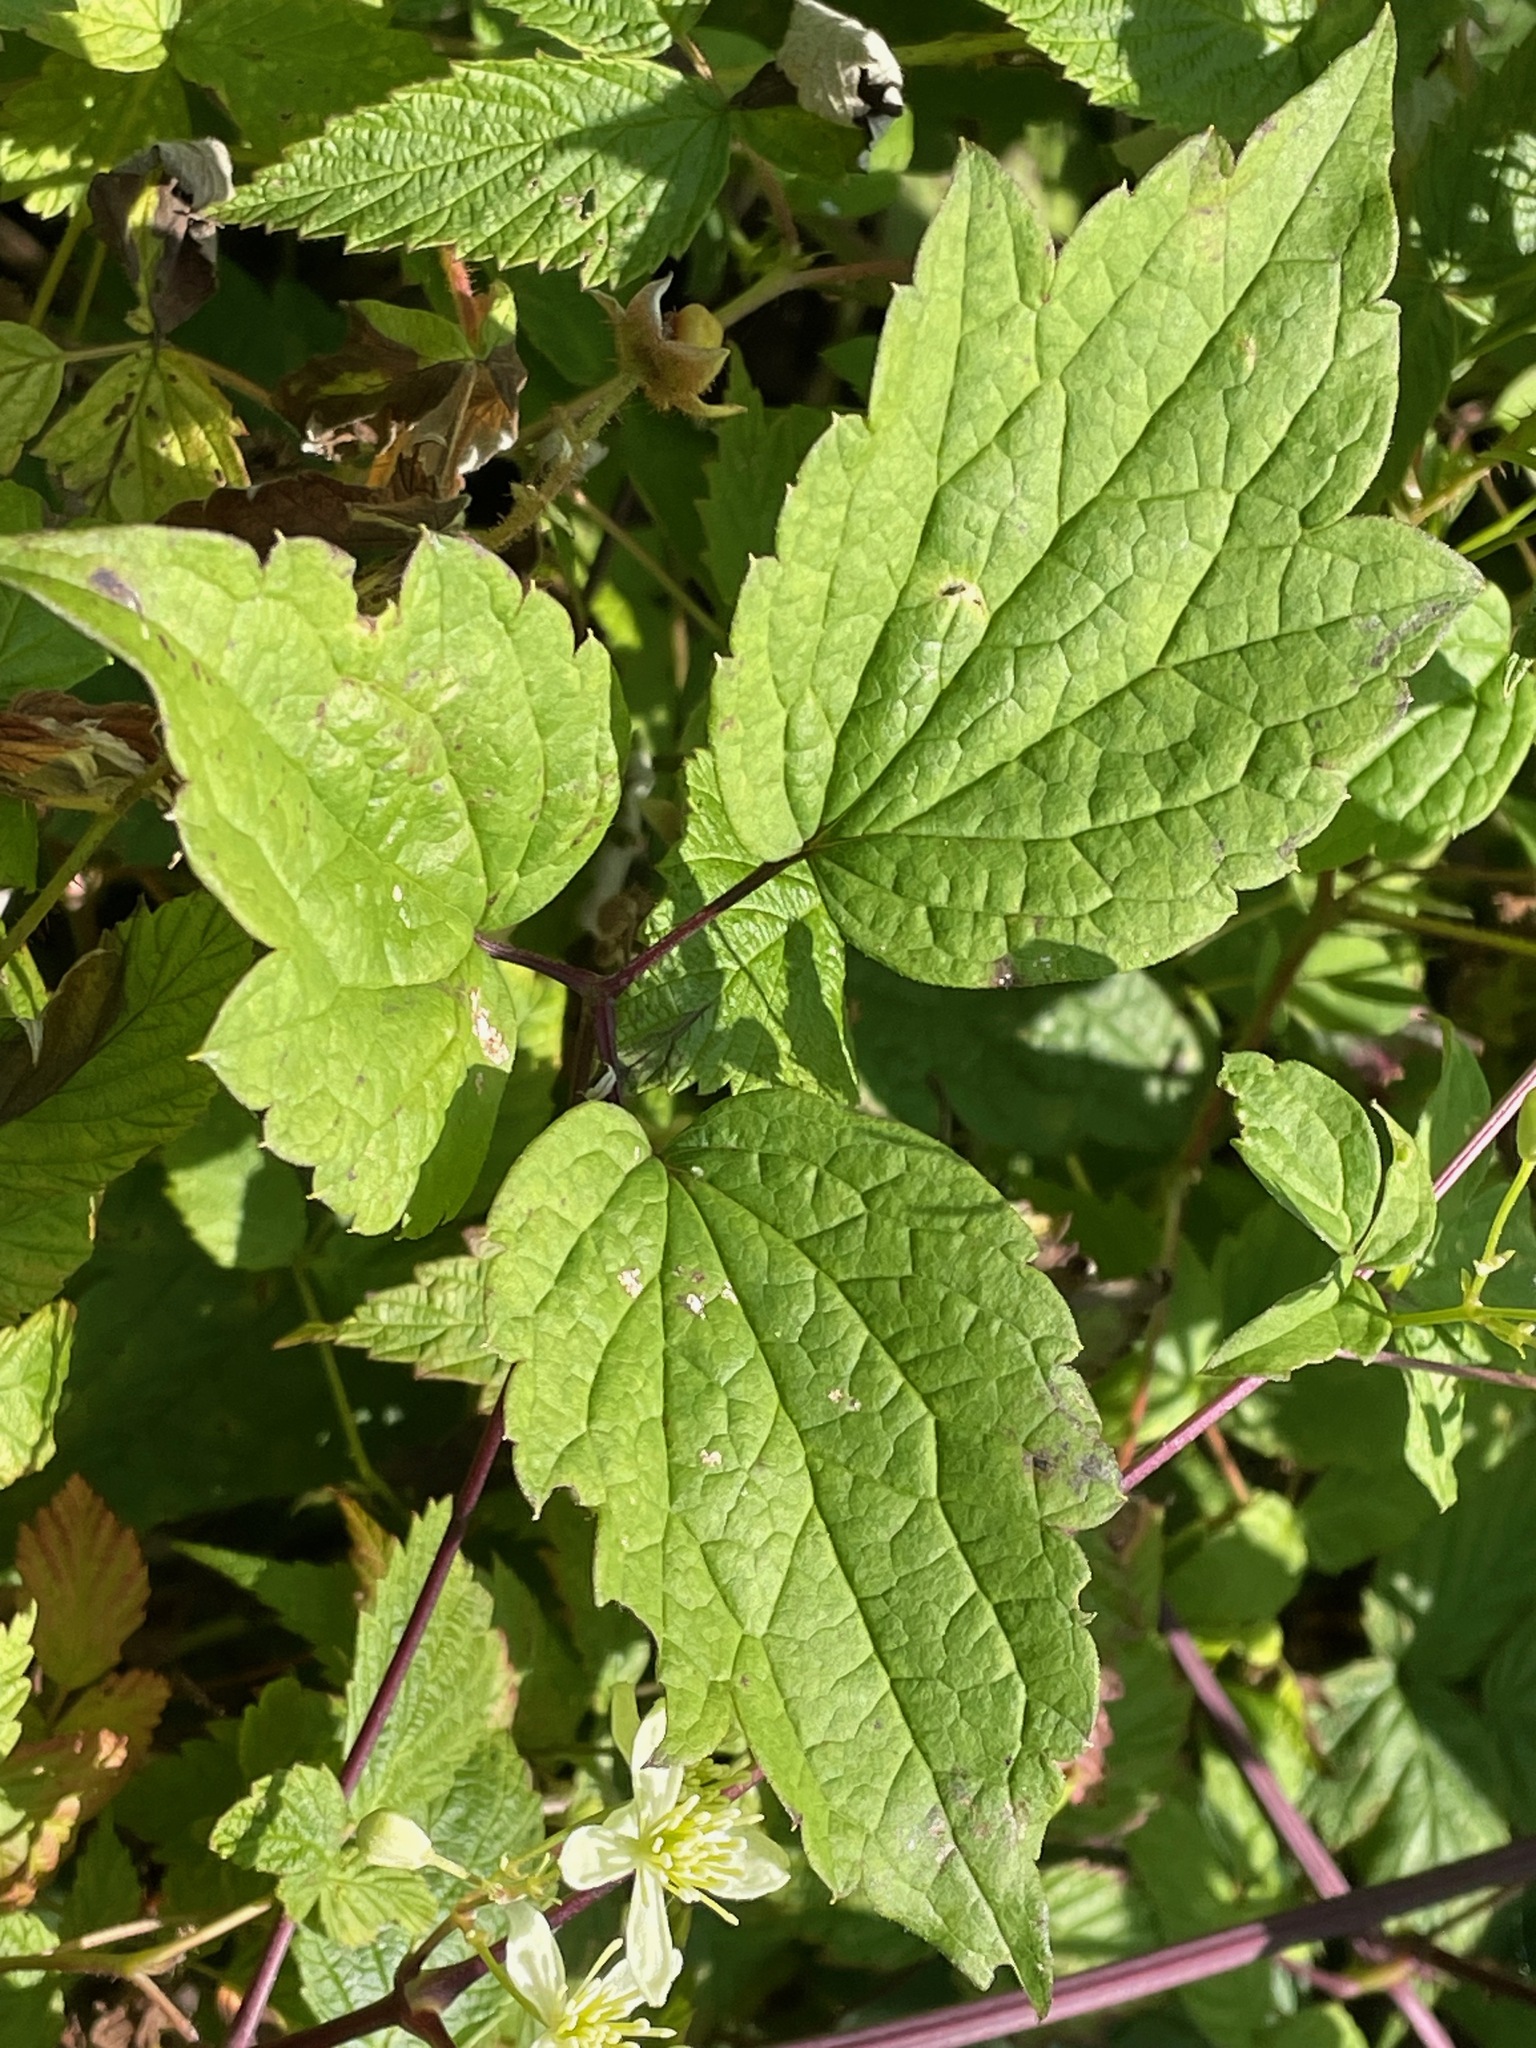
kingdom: Plantae
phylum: Tracheophyta
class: Magnoliopsida
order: Ranunculales
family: Ranunculaceae
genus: Clematis
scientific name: Clematis virginiana
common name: Virgin's-bower
